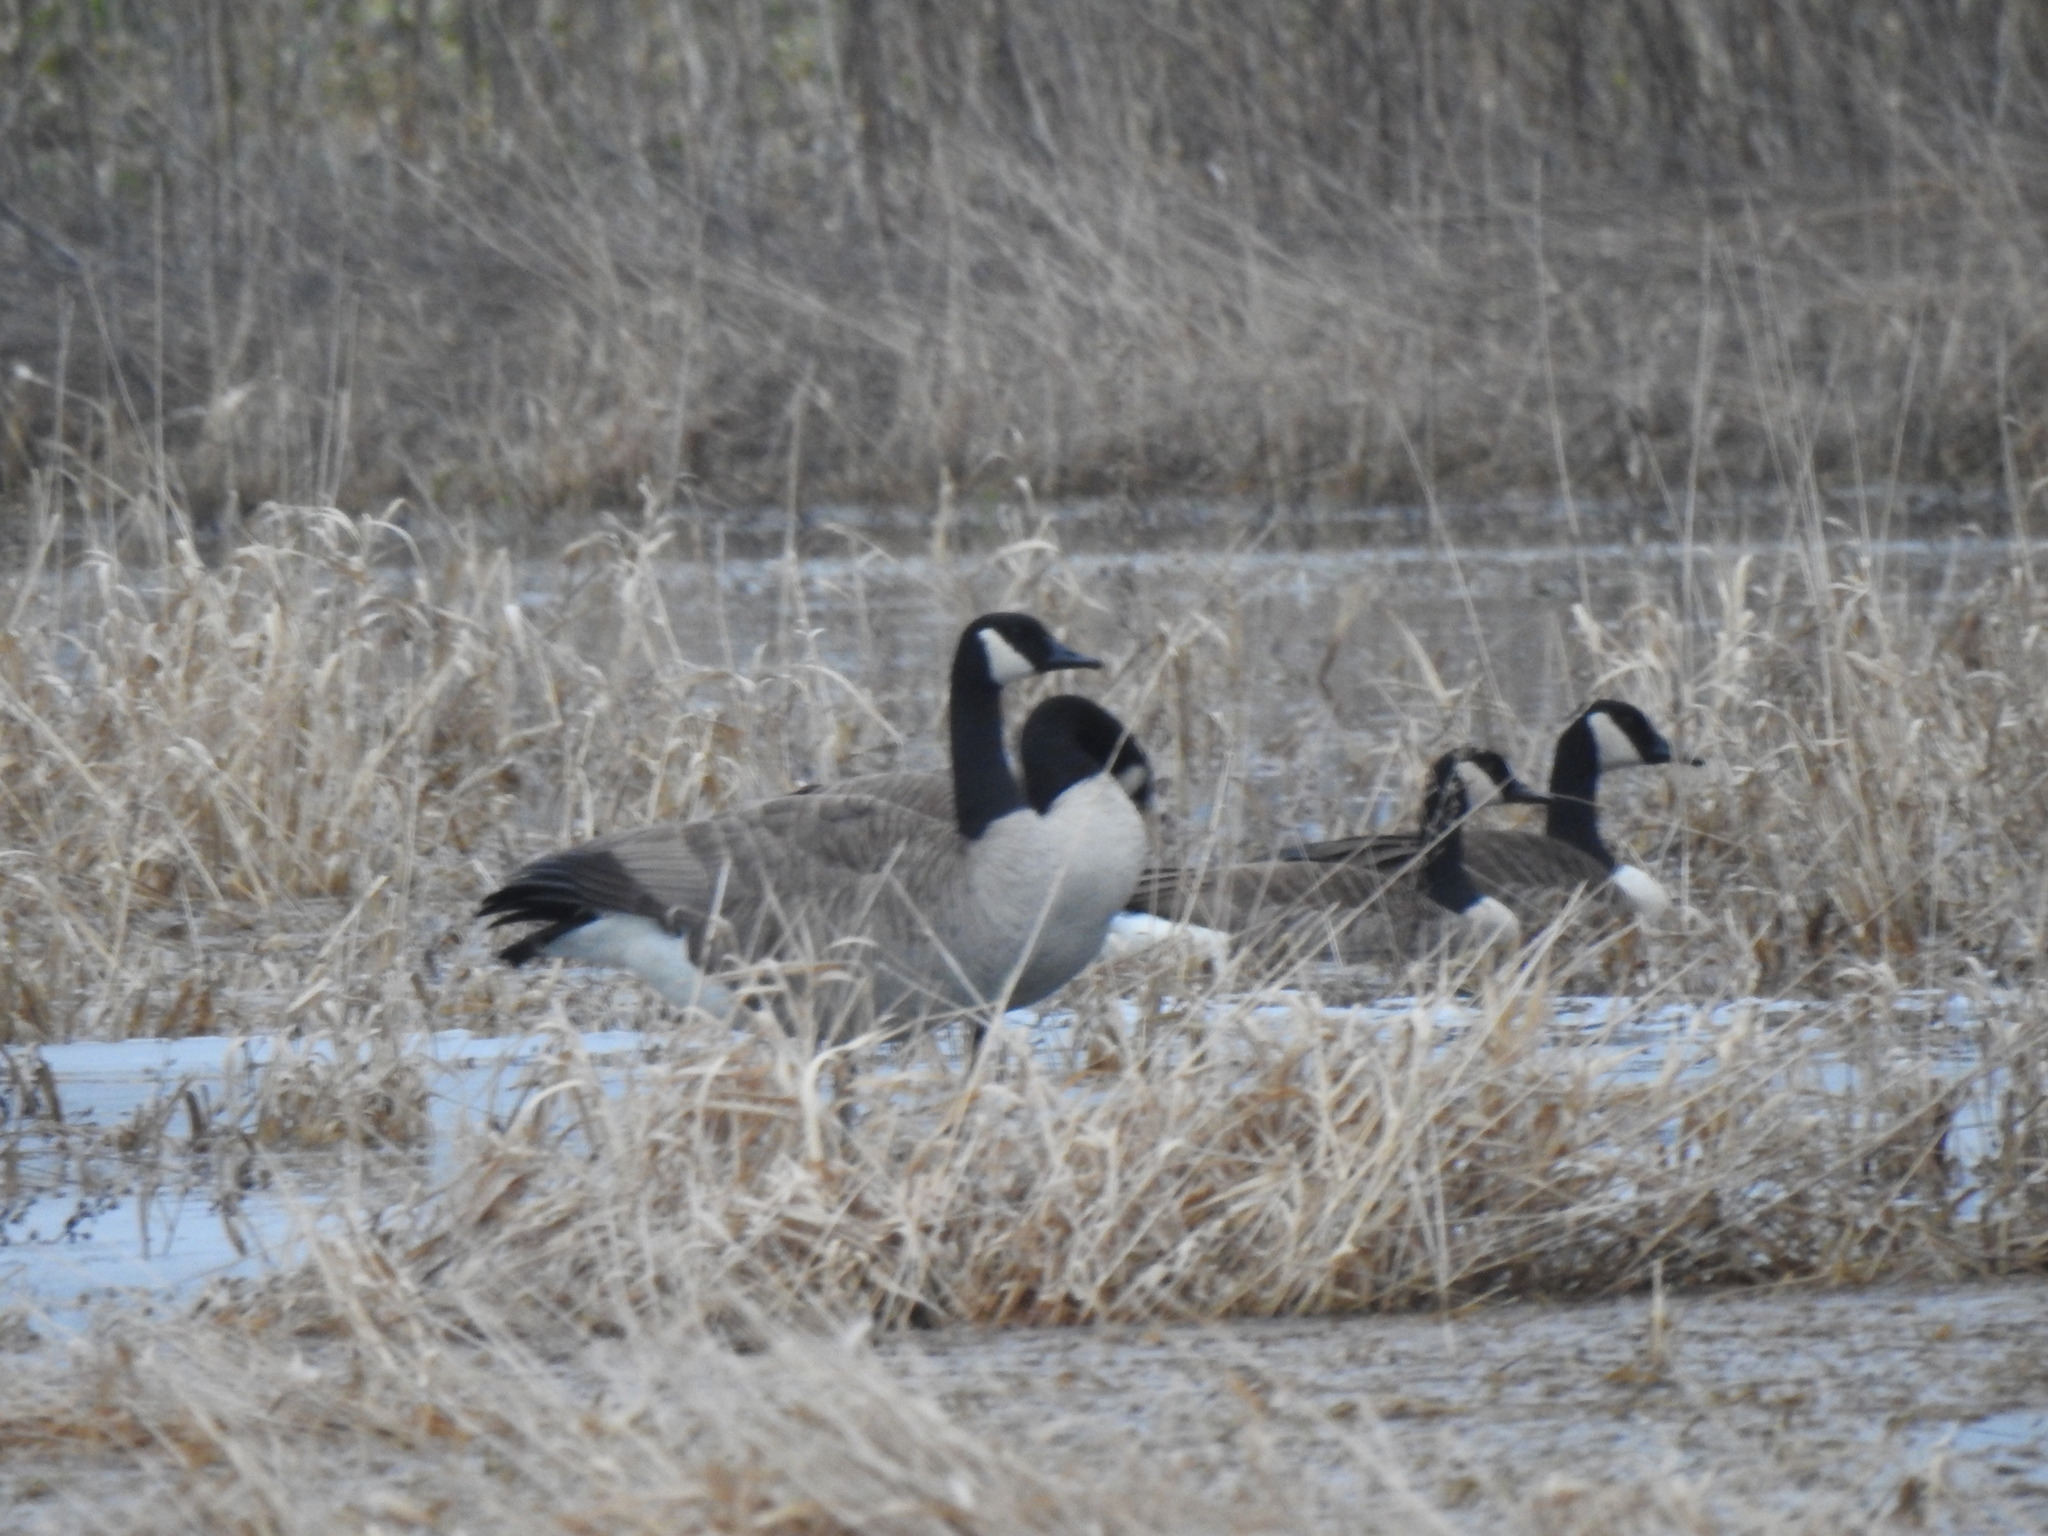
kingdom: Animalia
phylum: Chordata
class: Aves
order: Anseriformes
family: Anatidae
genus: Branta
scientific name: Branta canadensis
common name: Canada goose
